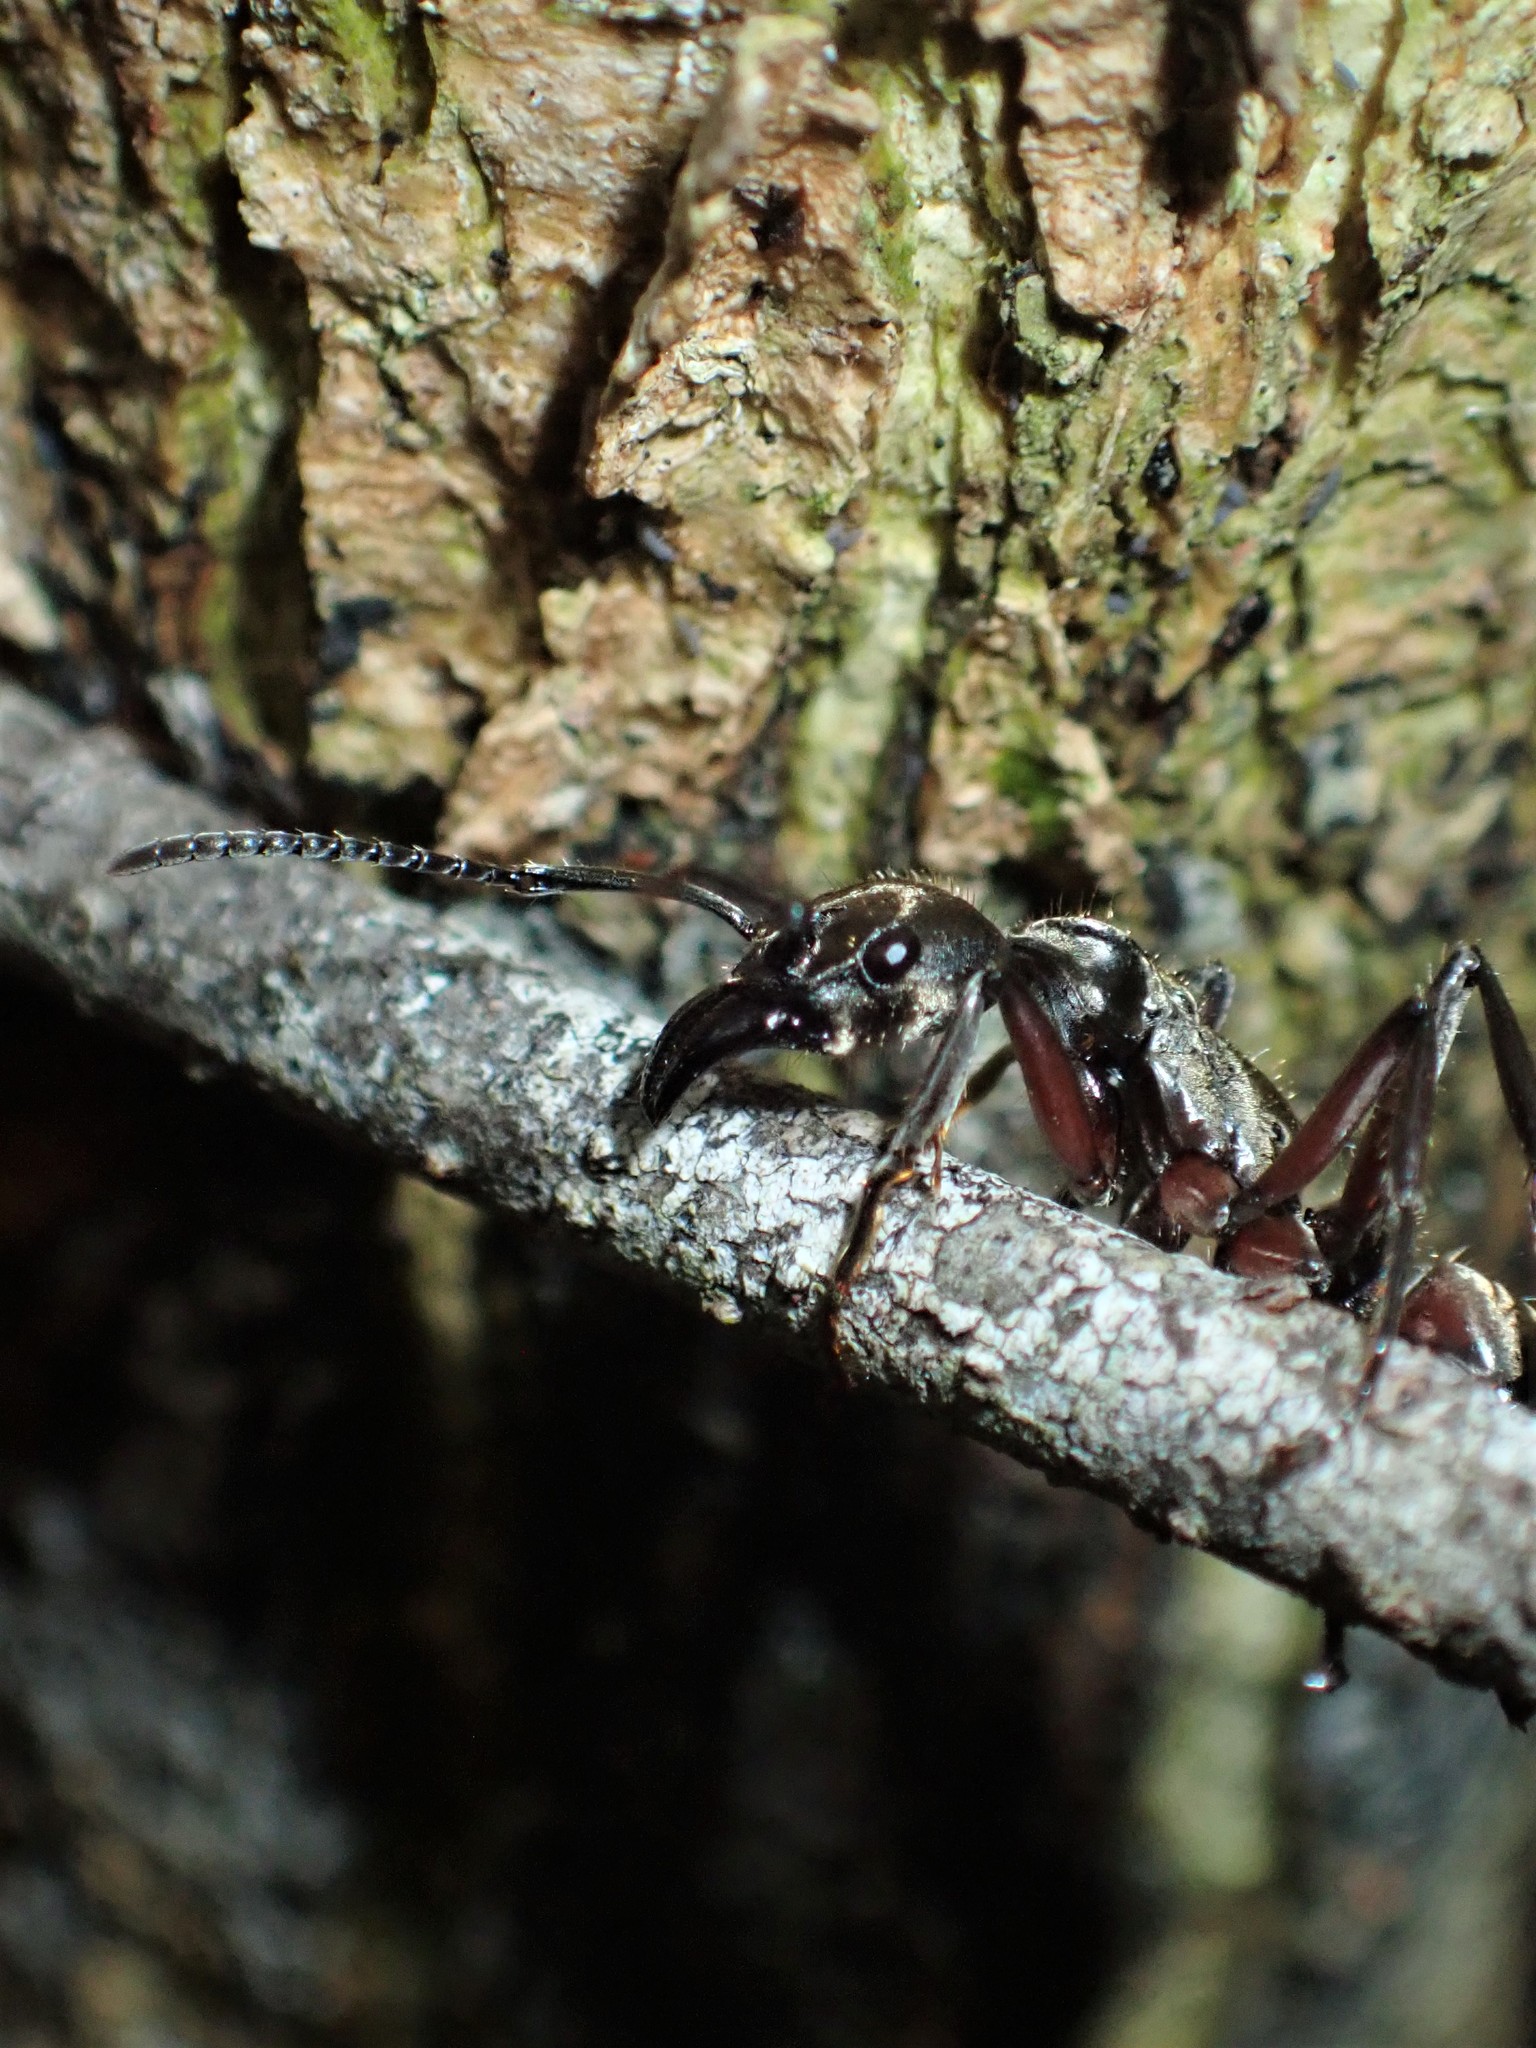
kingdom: Animalia
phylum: Arthropoda
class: Insecta
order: Hymenoptera
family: Formicidae
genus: Pachycondyla
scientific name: Pachycondyla villosa
